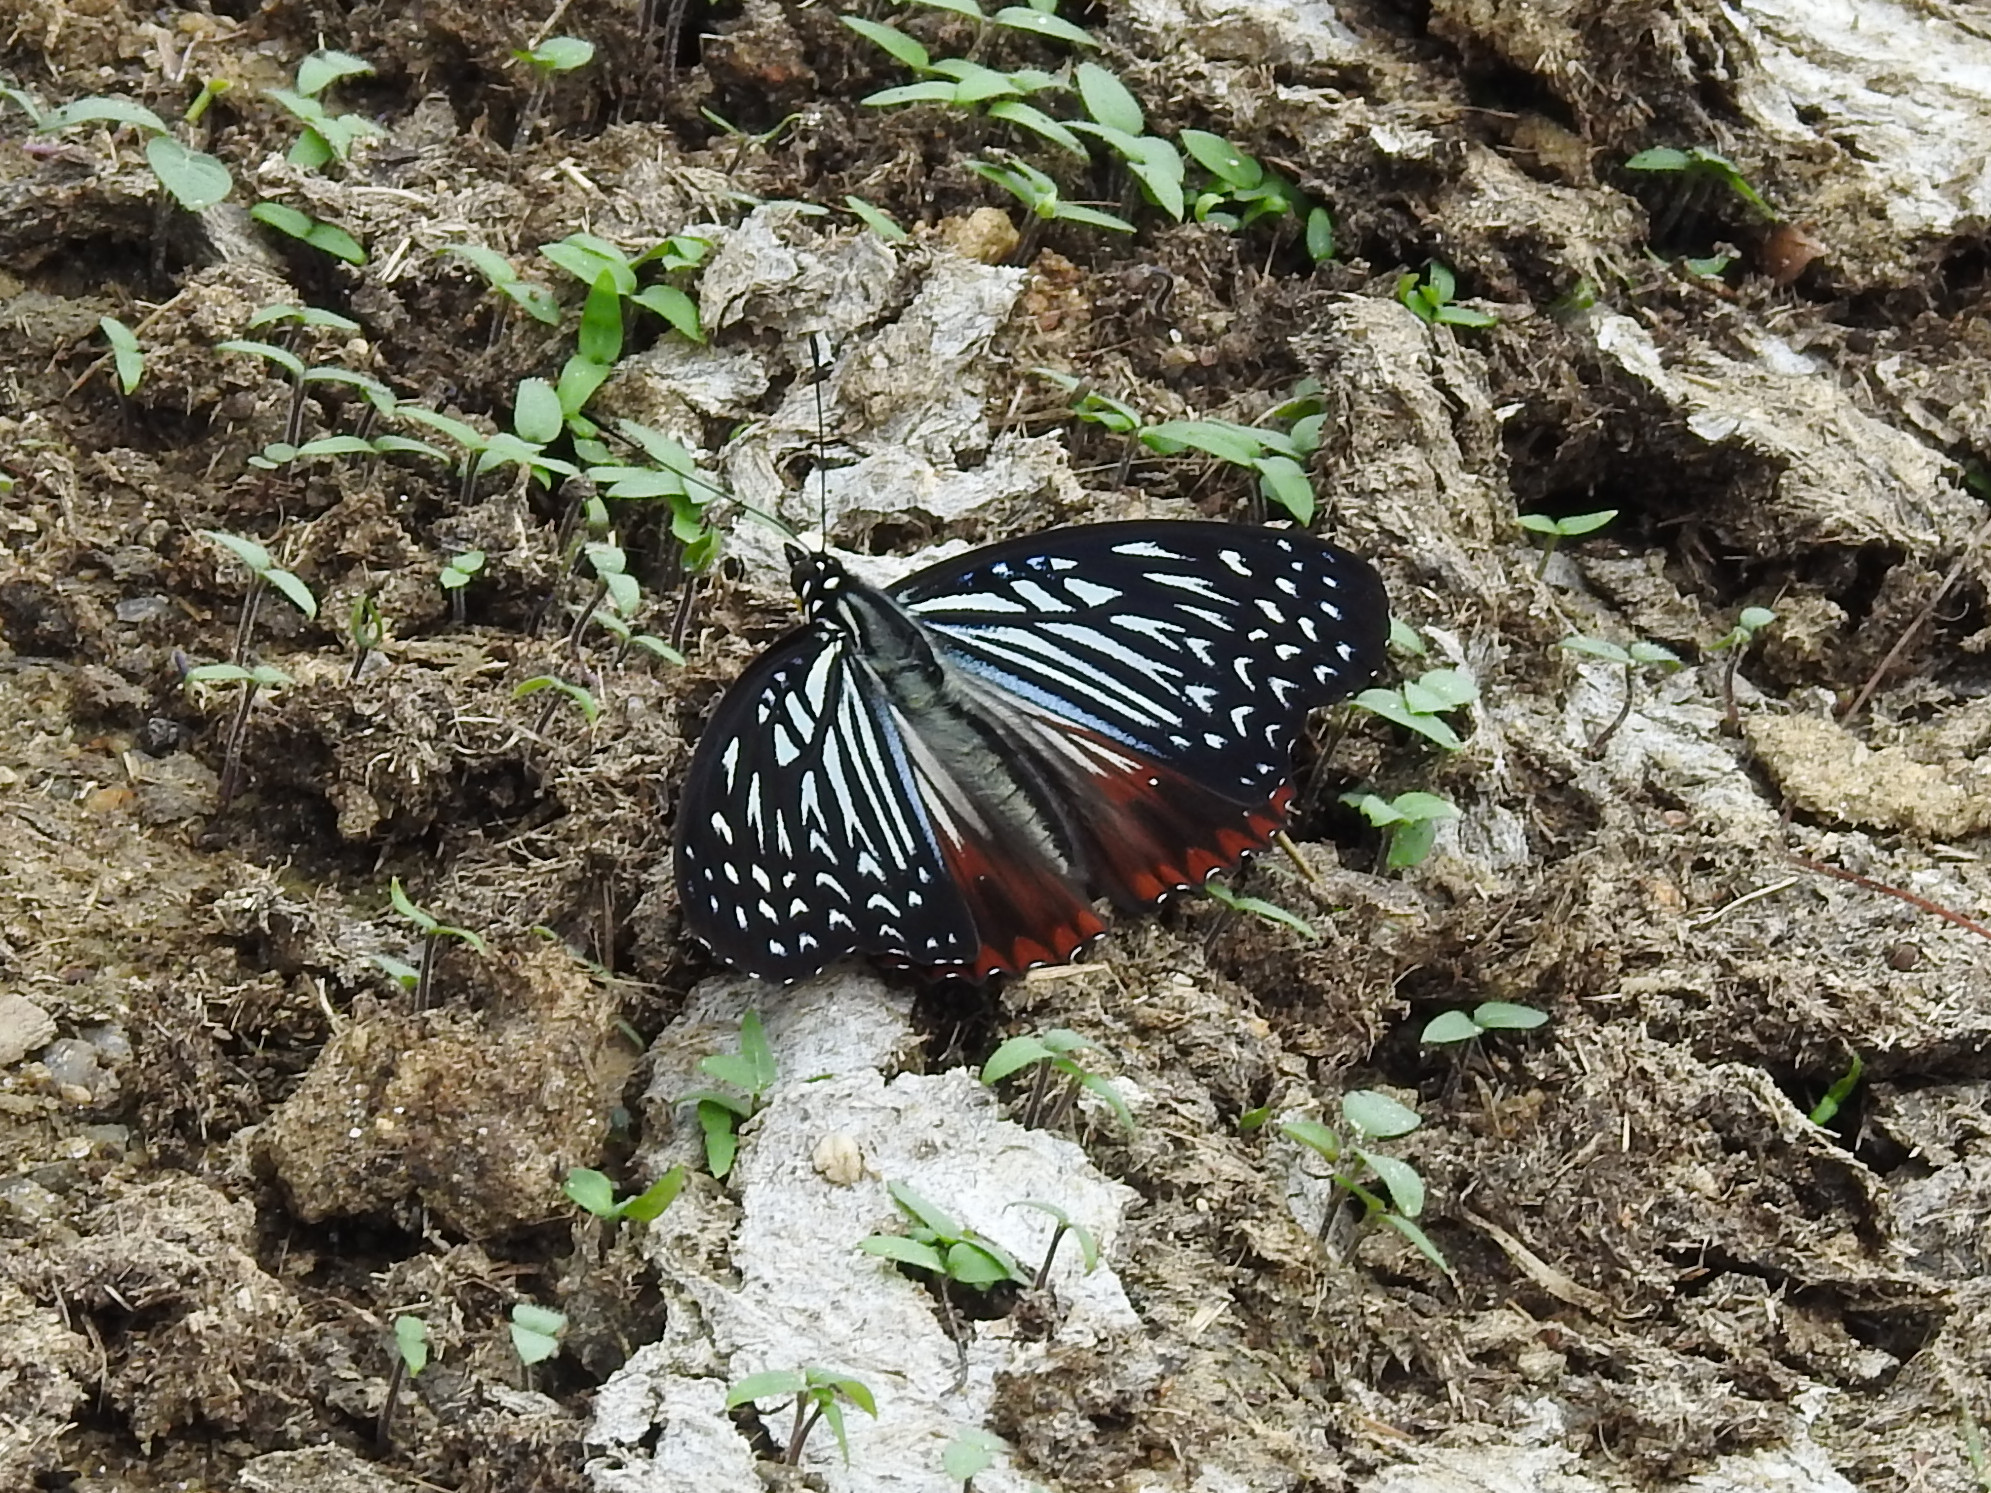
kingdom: Animalia
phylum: Arthropoda
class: Insecta
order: Lepidoptera
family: Nymphalidae
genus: Hestinalis
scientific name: Hestinalis nama
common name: Circe
